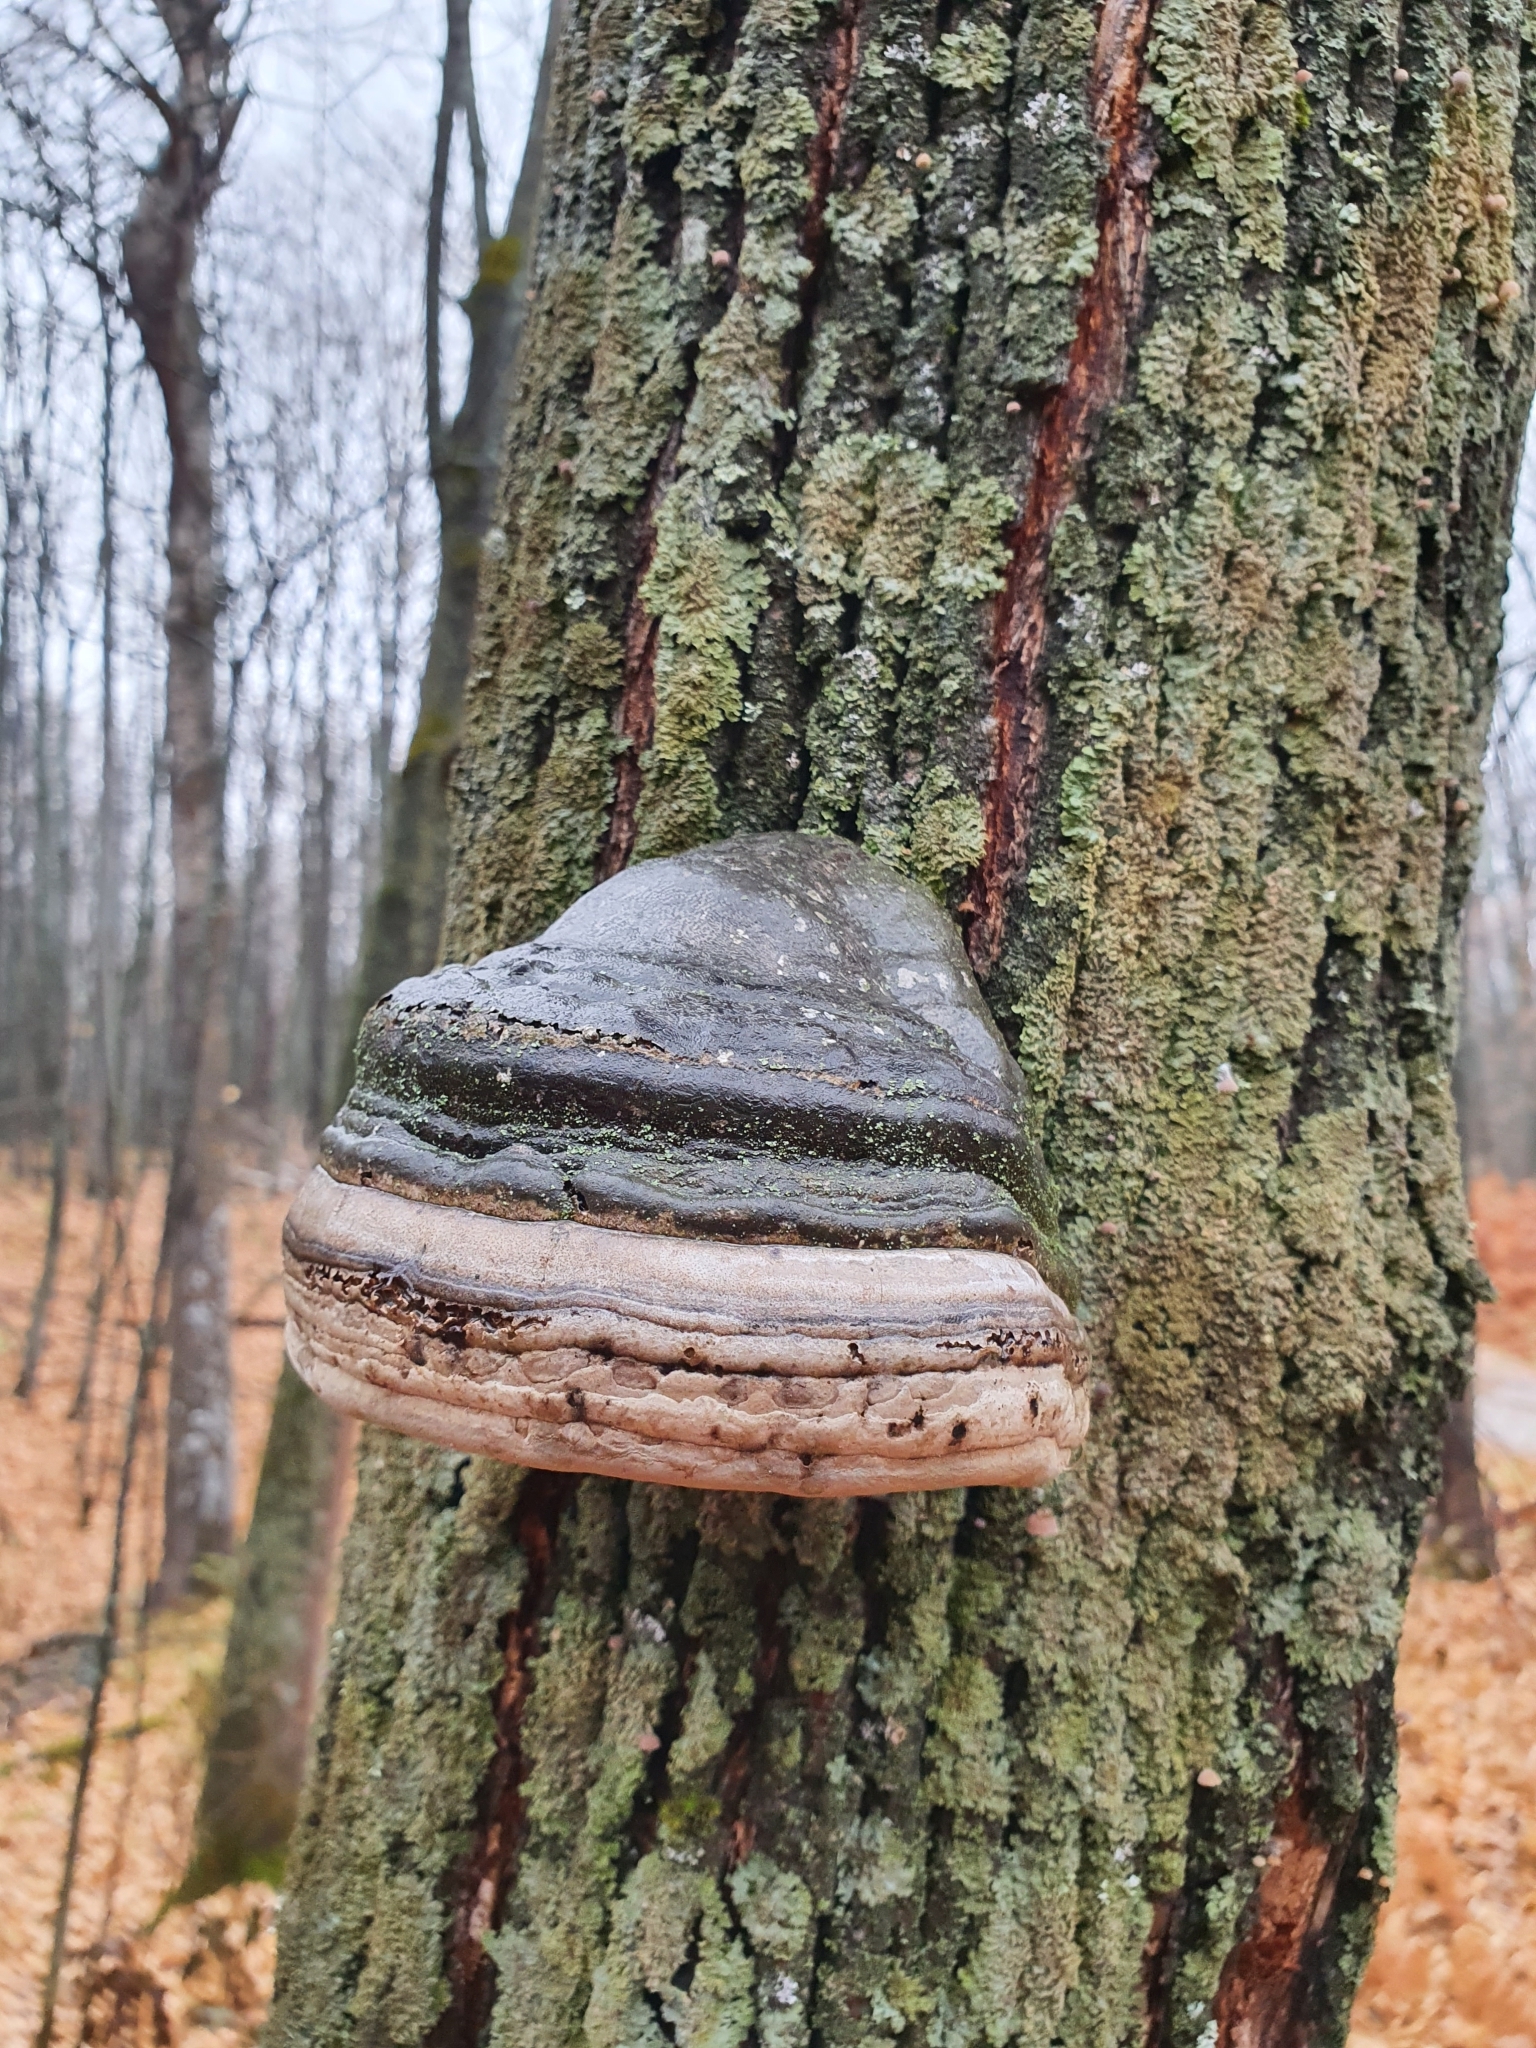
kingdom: Fungi
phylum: Basidiomycota
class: Agaricomycetes
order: Polyporales
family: Polyporaceae
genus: Fomes
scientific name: Fomes fomentarius
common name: Hoof fungus
